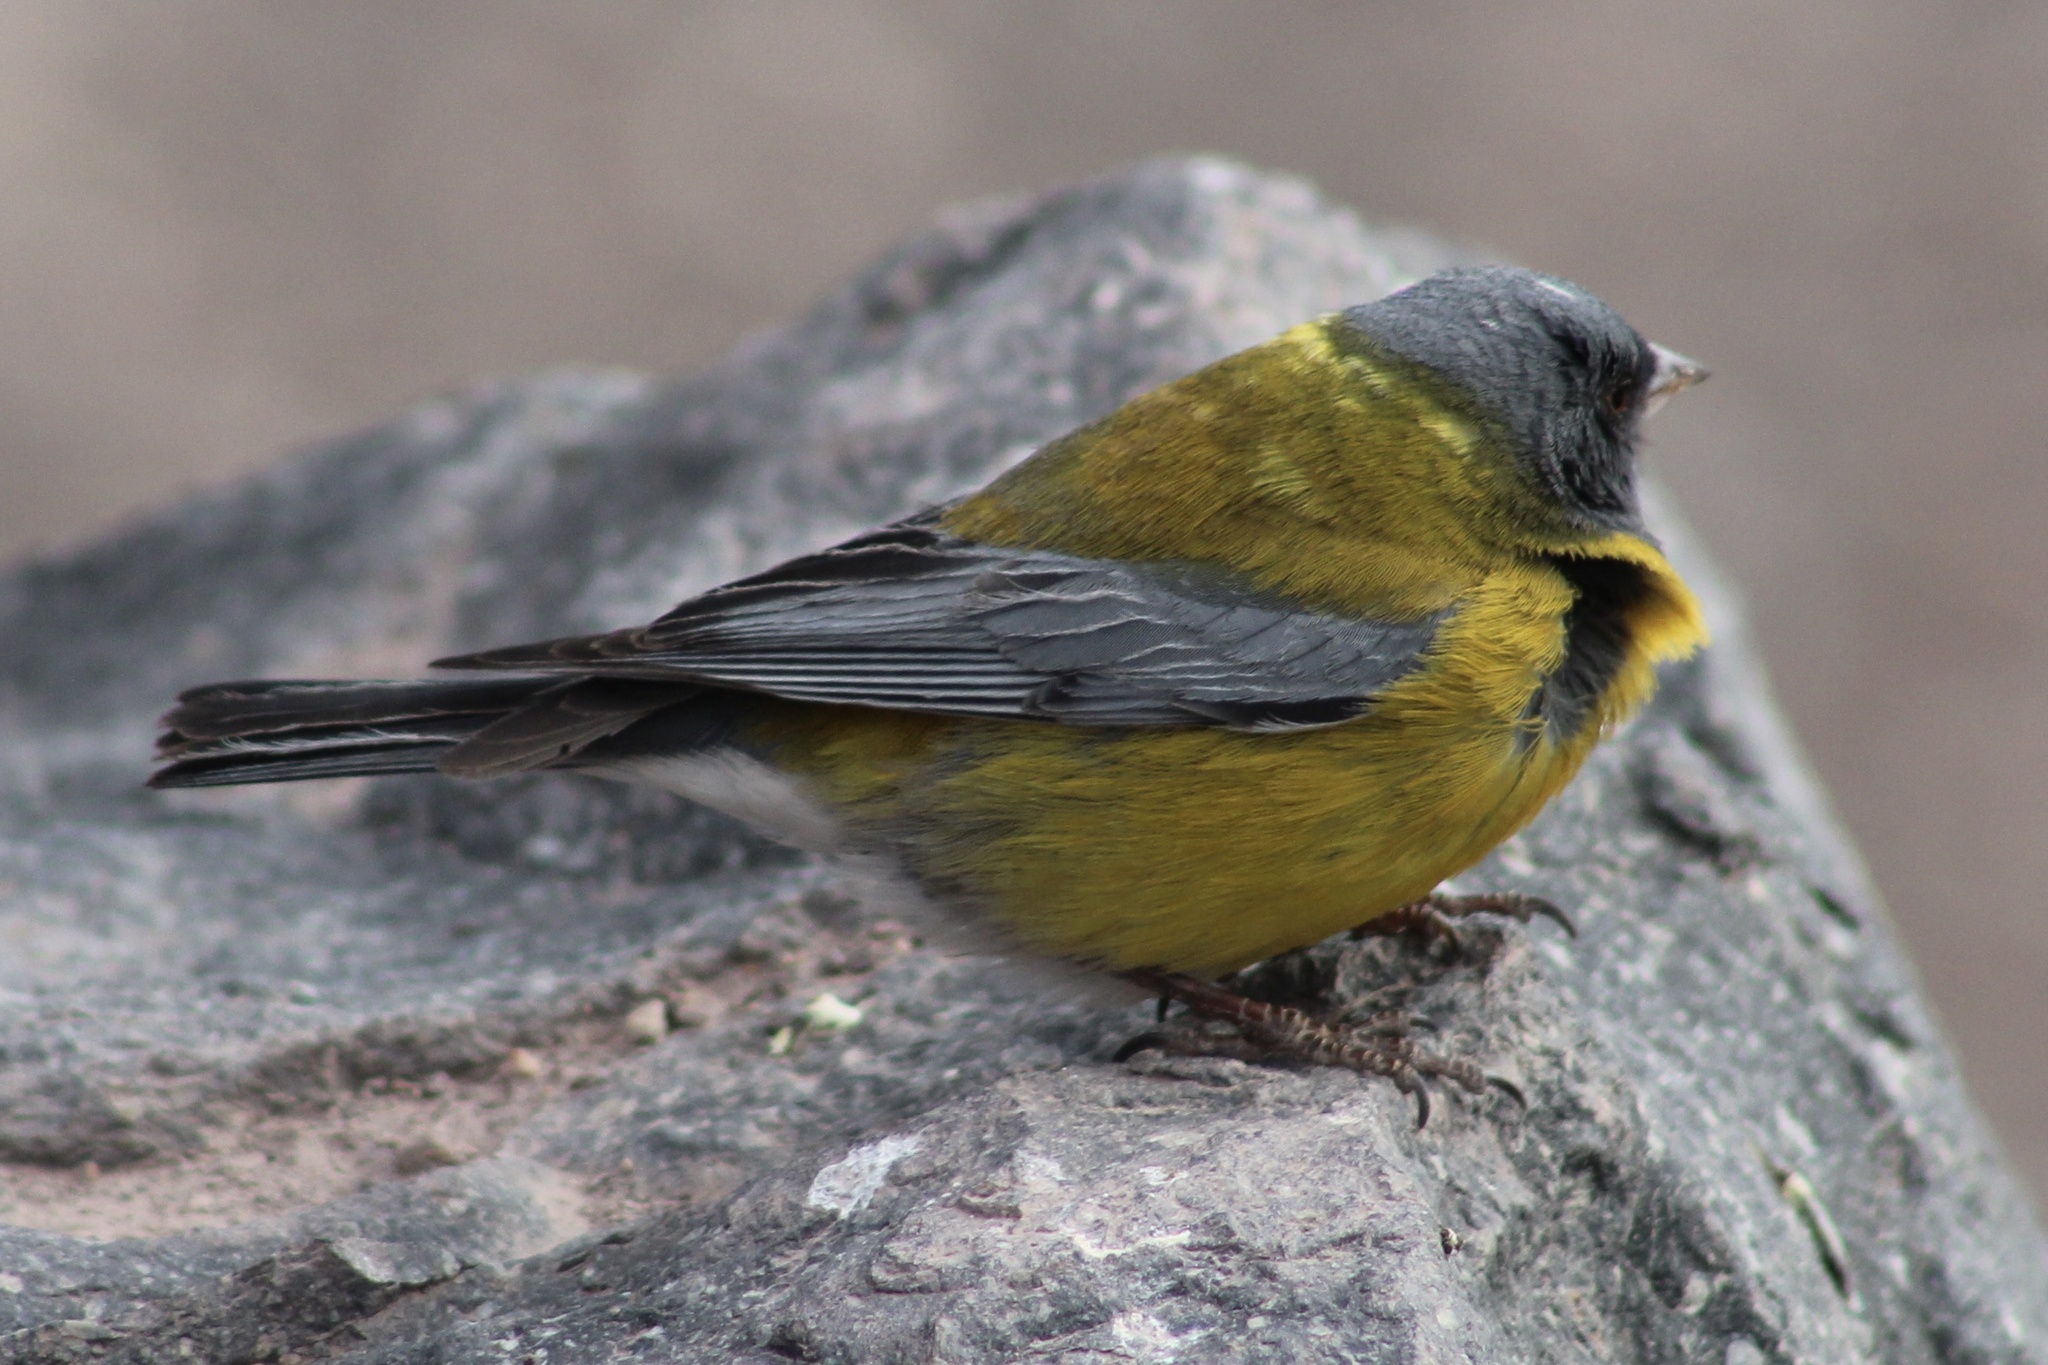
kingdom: Animalia
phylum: Chordata
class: Aves
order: Passeriformes
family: Thraupidae
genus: Phrygilus
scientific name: Phrygilus gayi
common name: Grey-hooded sierra finch
